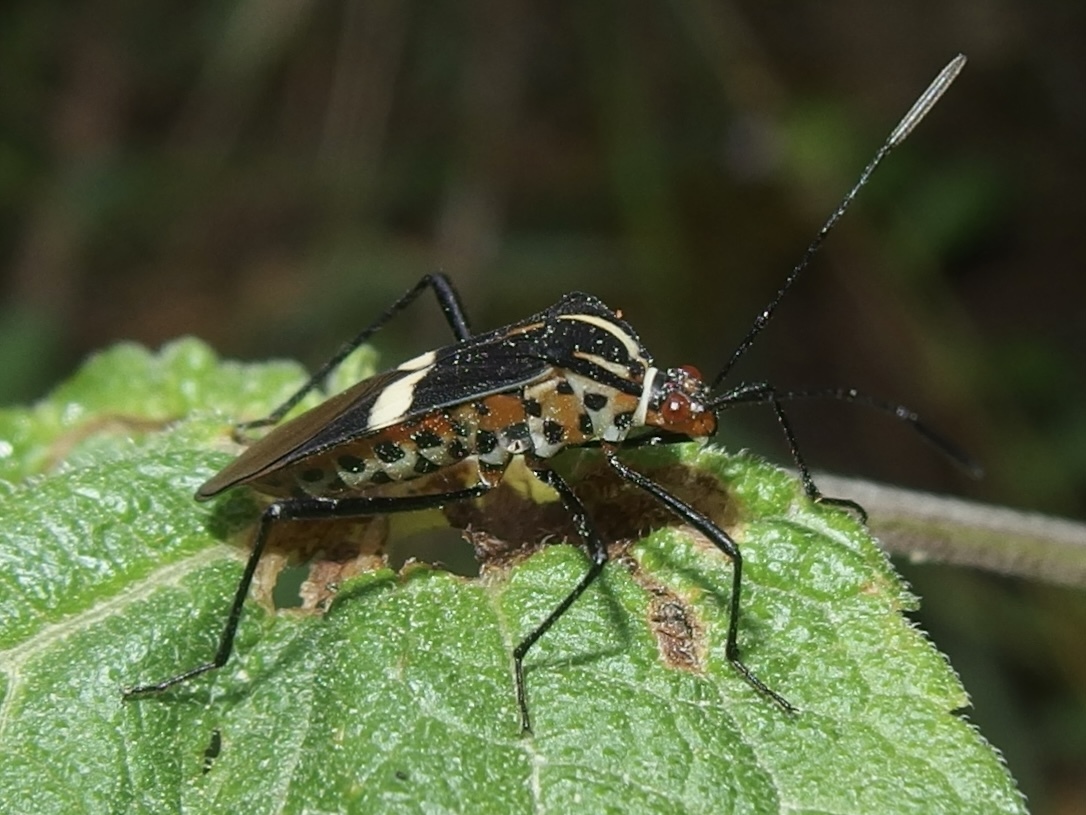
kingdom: Animalia
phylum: Arthropoda
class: Insecta
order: Hemiptera
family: Coreidae
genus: Hypselonotus
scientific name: Hypselonotus interruptus
